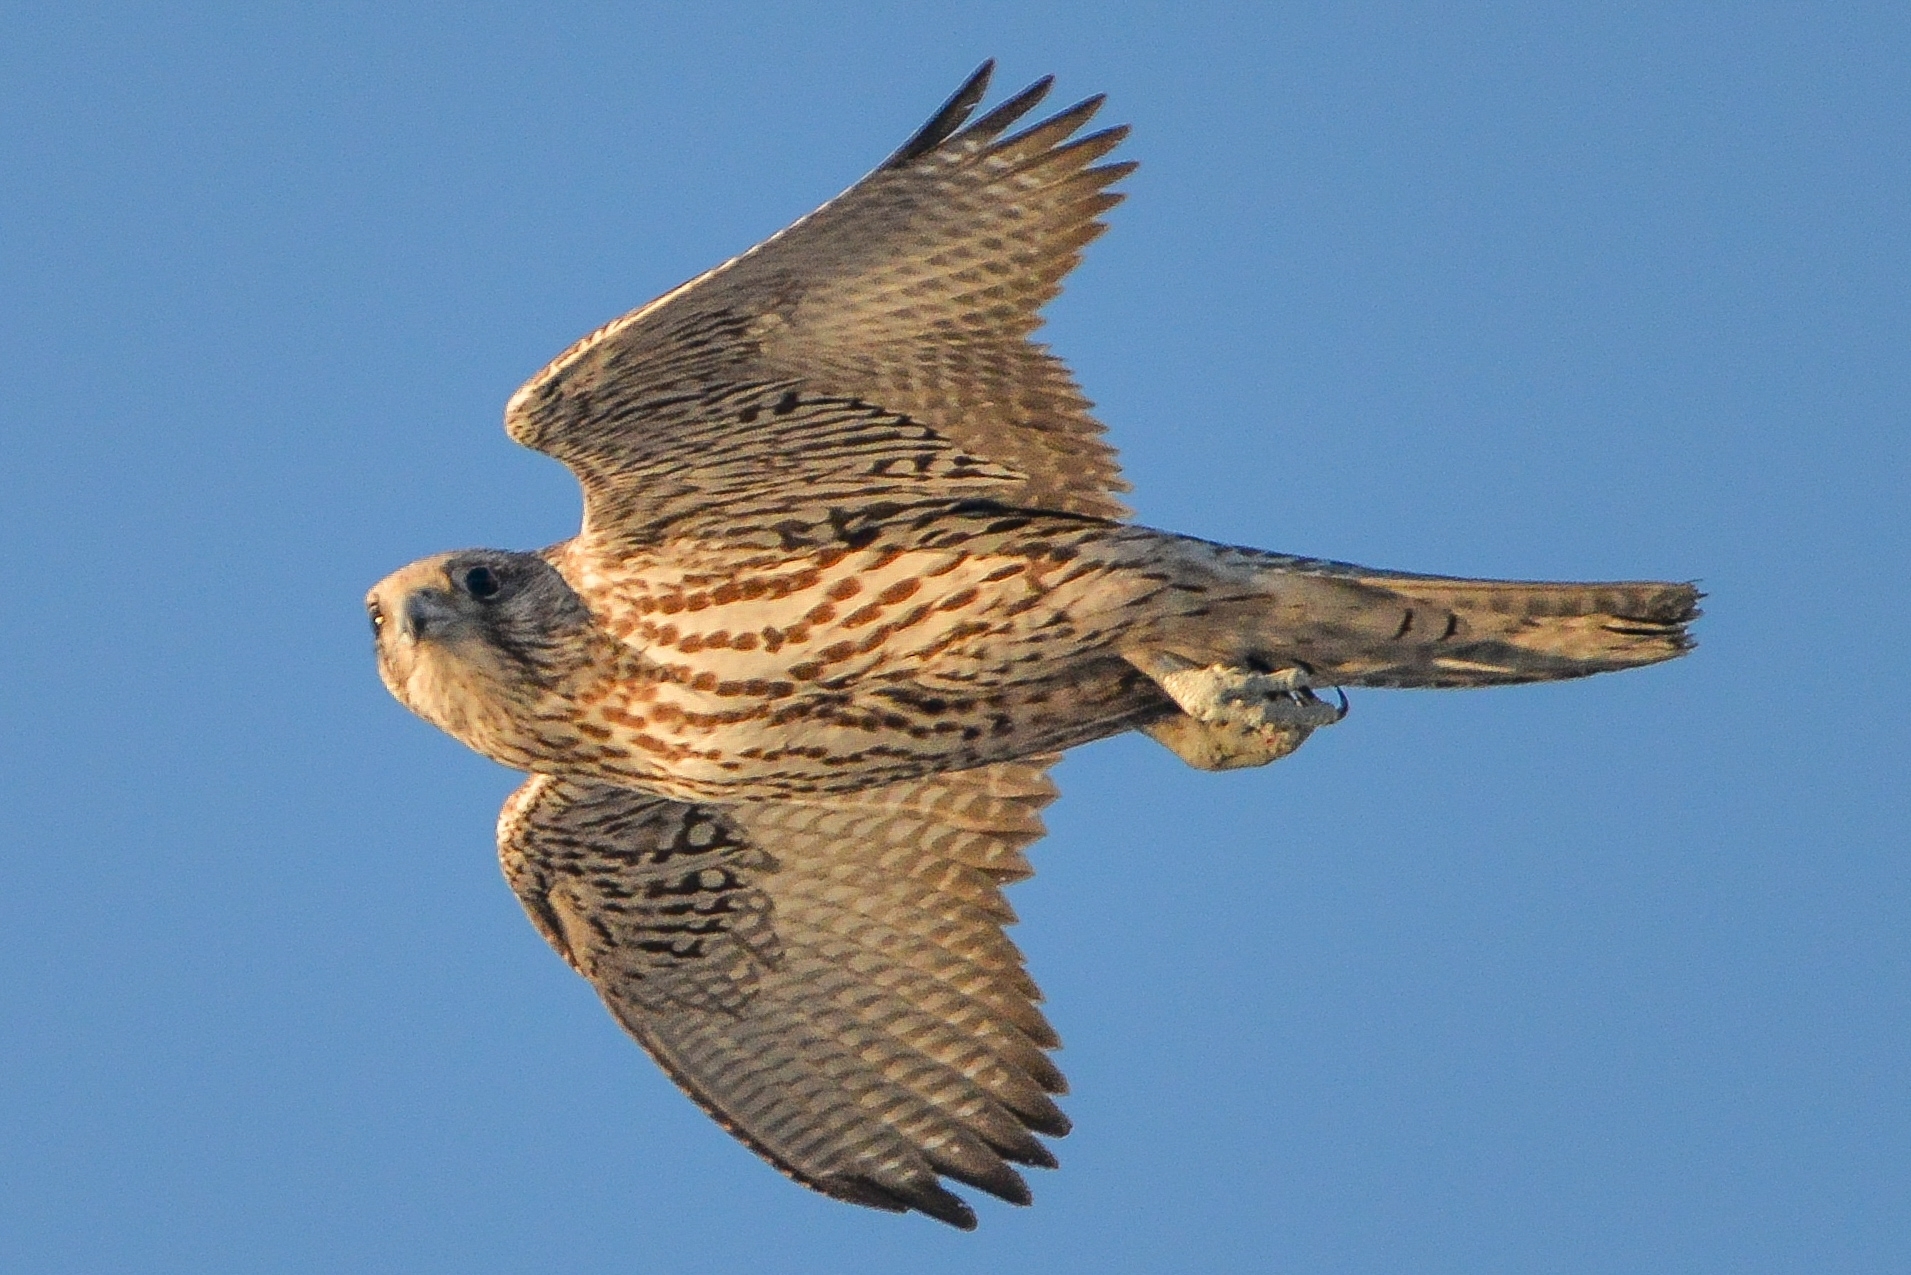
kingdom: Animalia
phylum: Chordata
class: Aves
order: Falconiformes
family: Falconidae
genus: Falco
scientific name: Falco rusticolus
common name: Gyrfalcon
